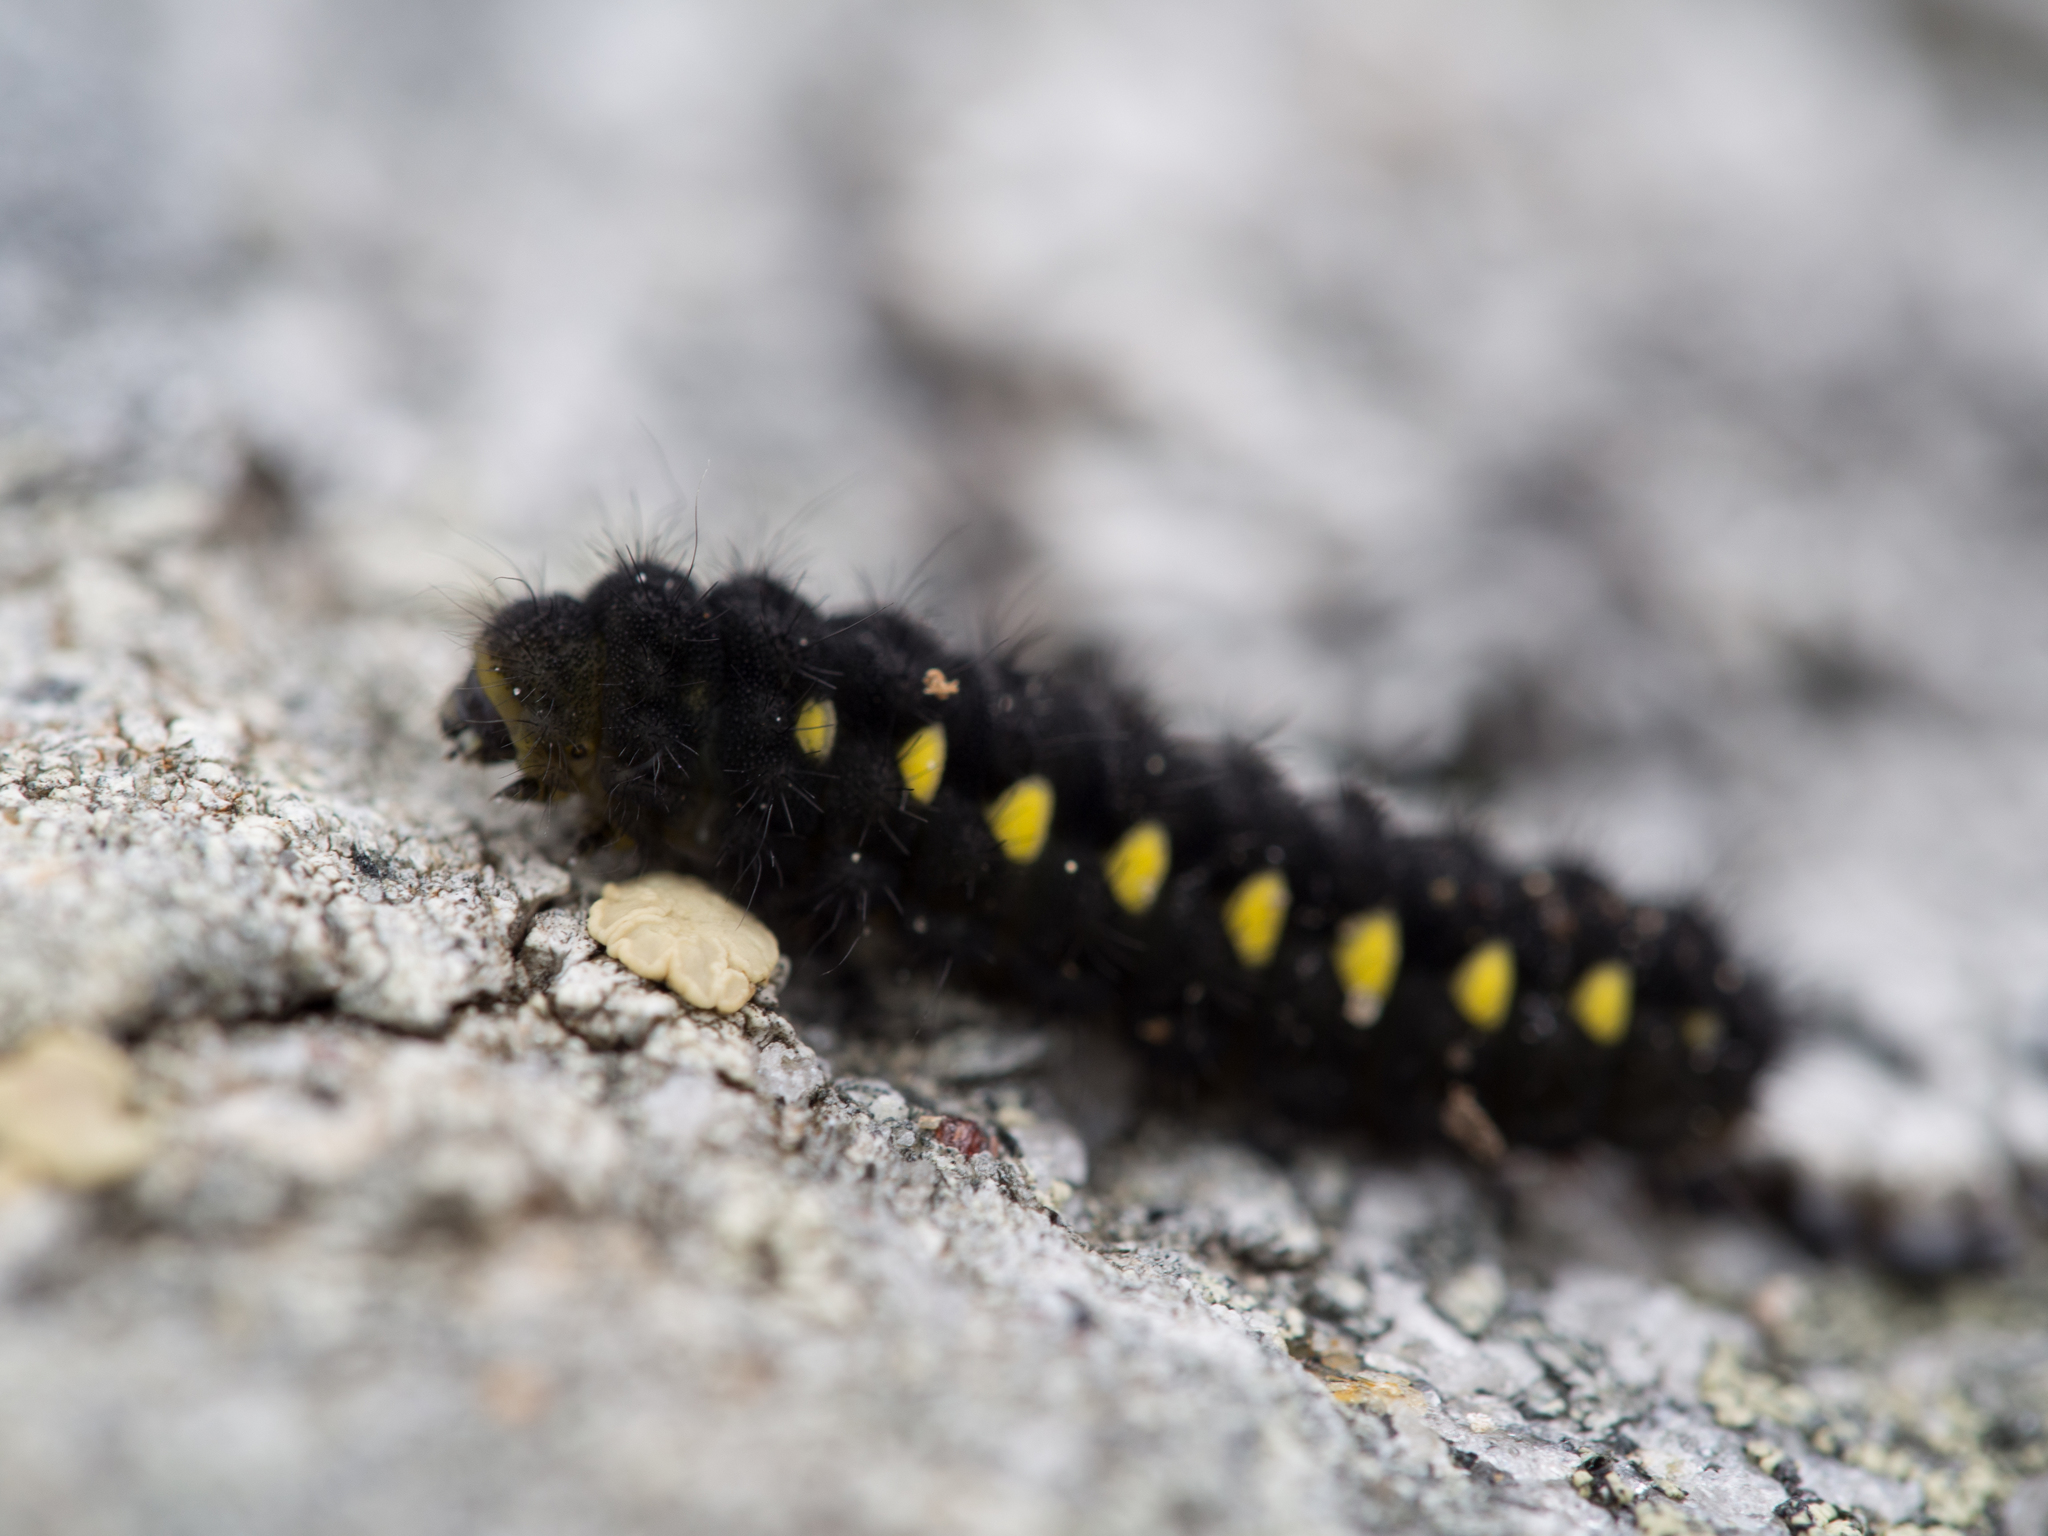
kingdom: Animalia
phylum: Arthropoda
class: Insecta
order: Lepidoptera
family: Zygaenidae
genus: Zygaena
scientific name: Zygaena exulans
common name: Scotch burnet
